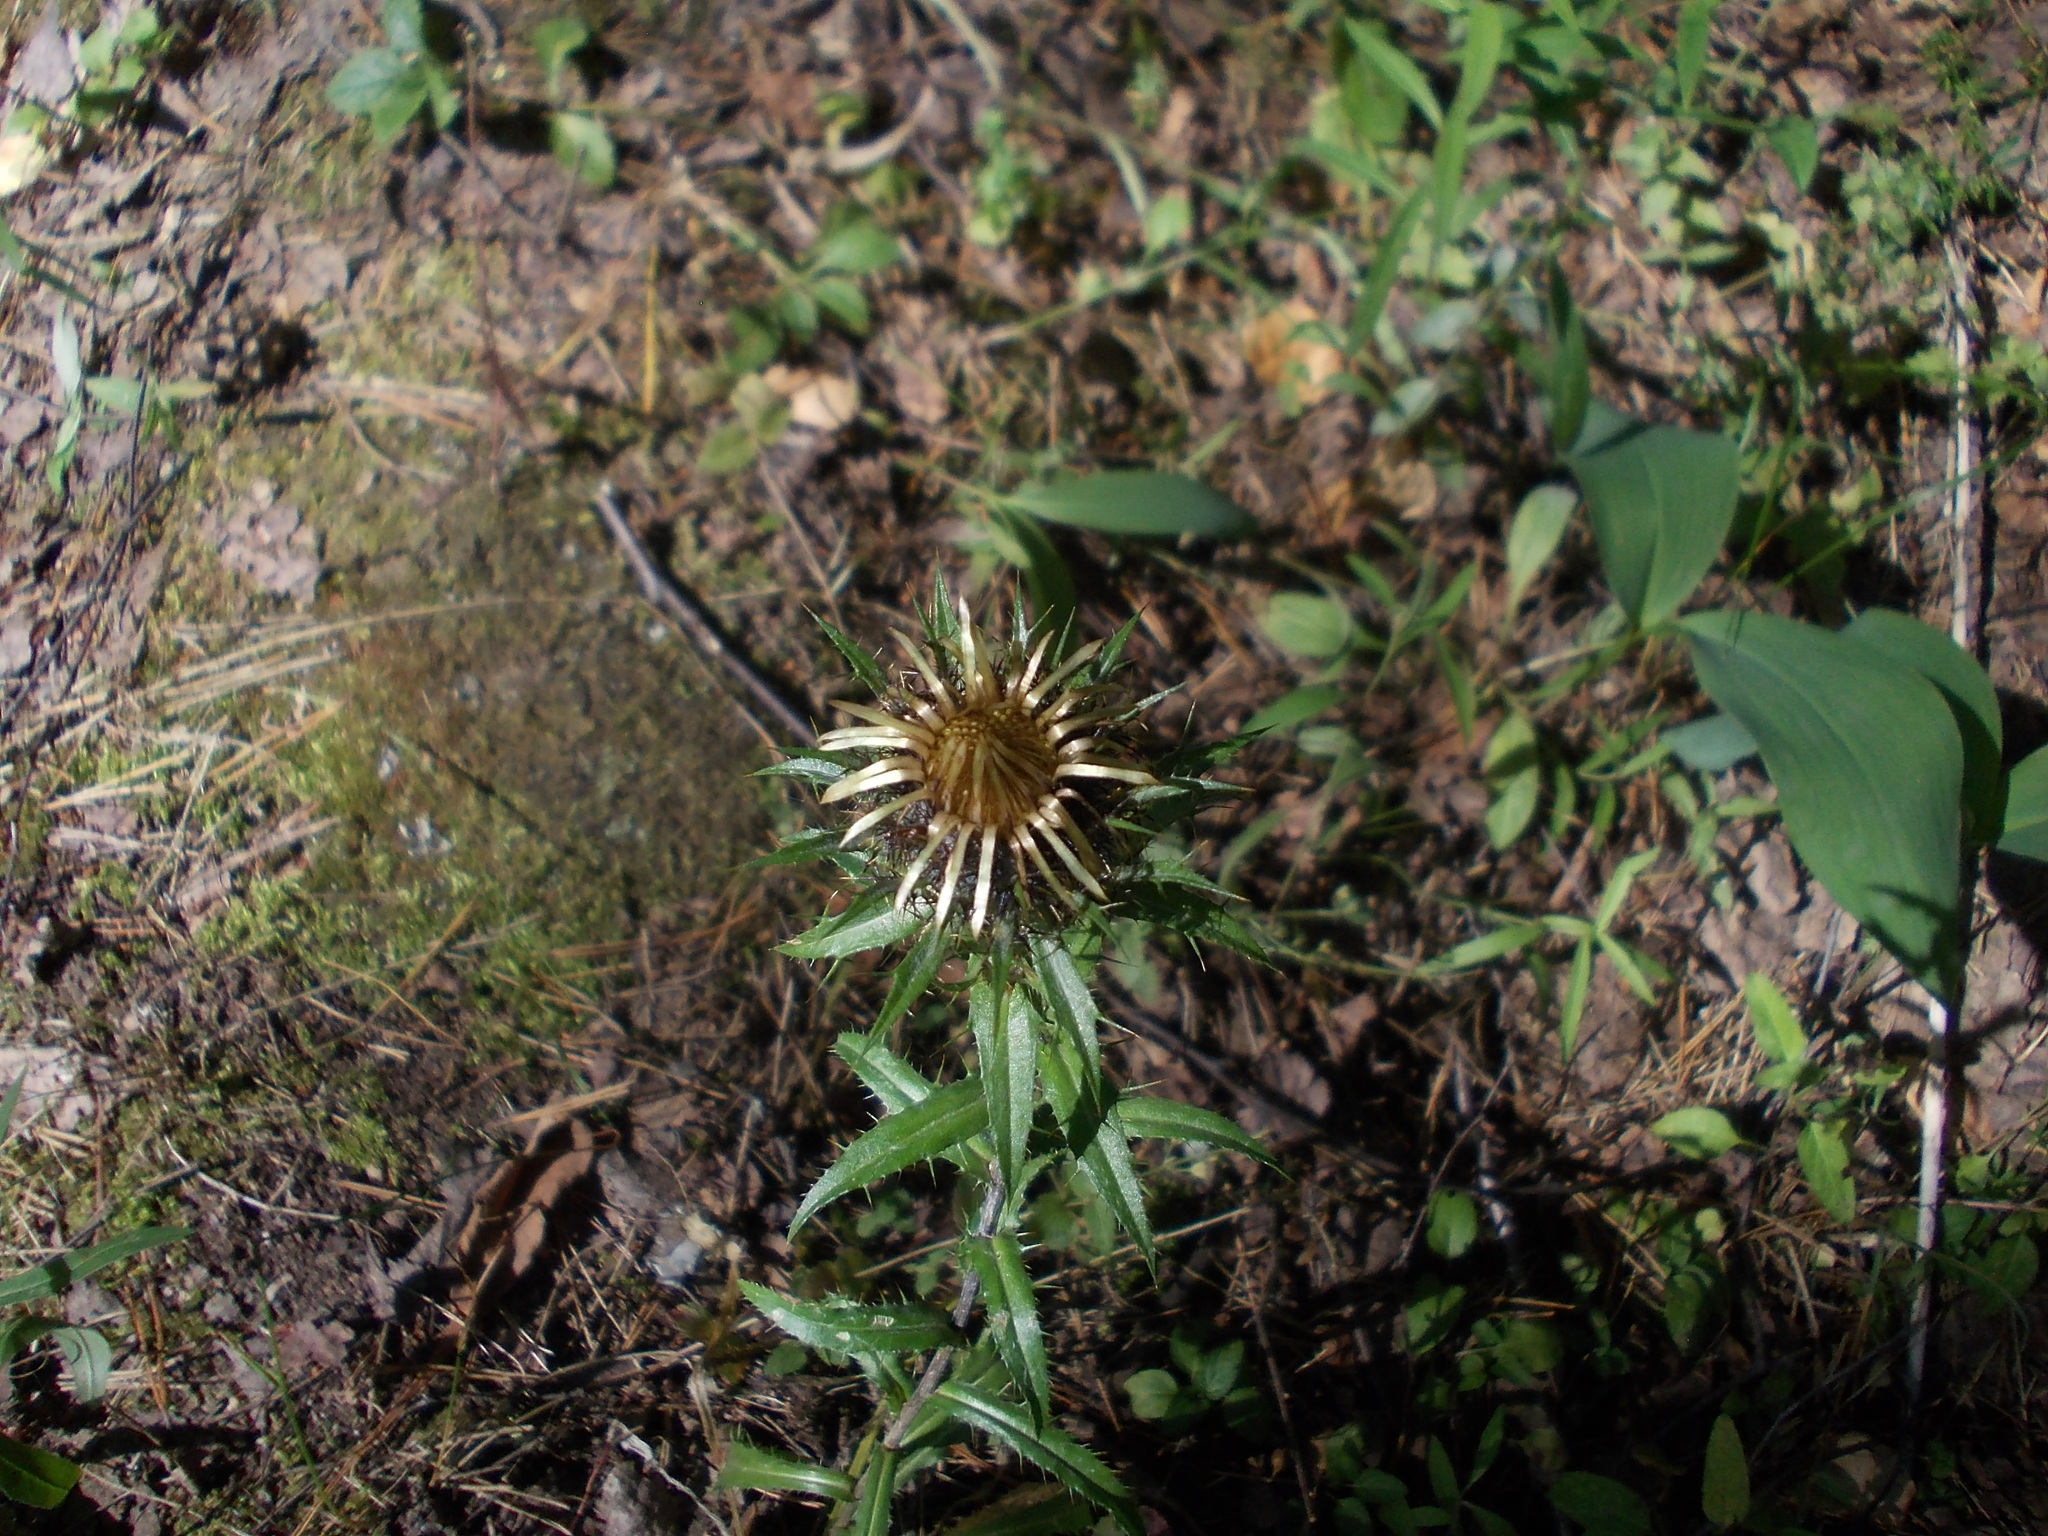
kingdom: Plantae
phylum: Tracheophyta
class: Magnoliopsida
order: Asterales
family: Asteraceae
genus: Carlina
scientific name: Carlina biebersteinii
